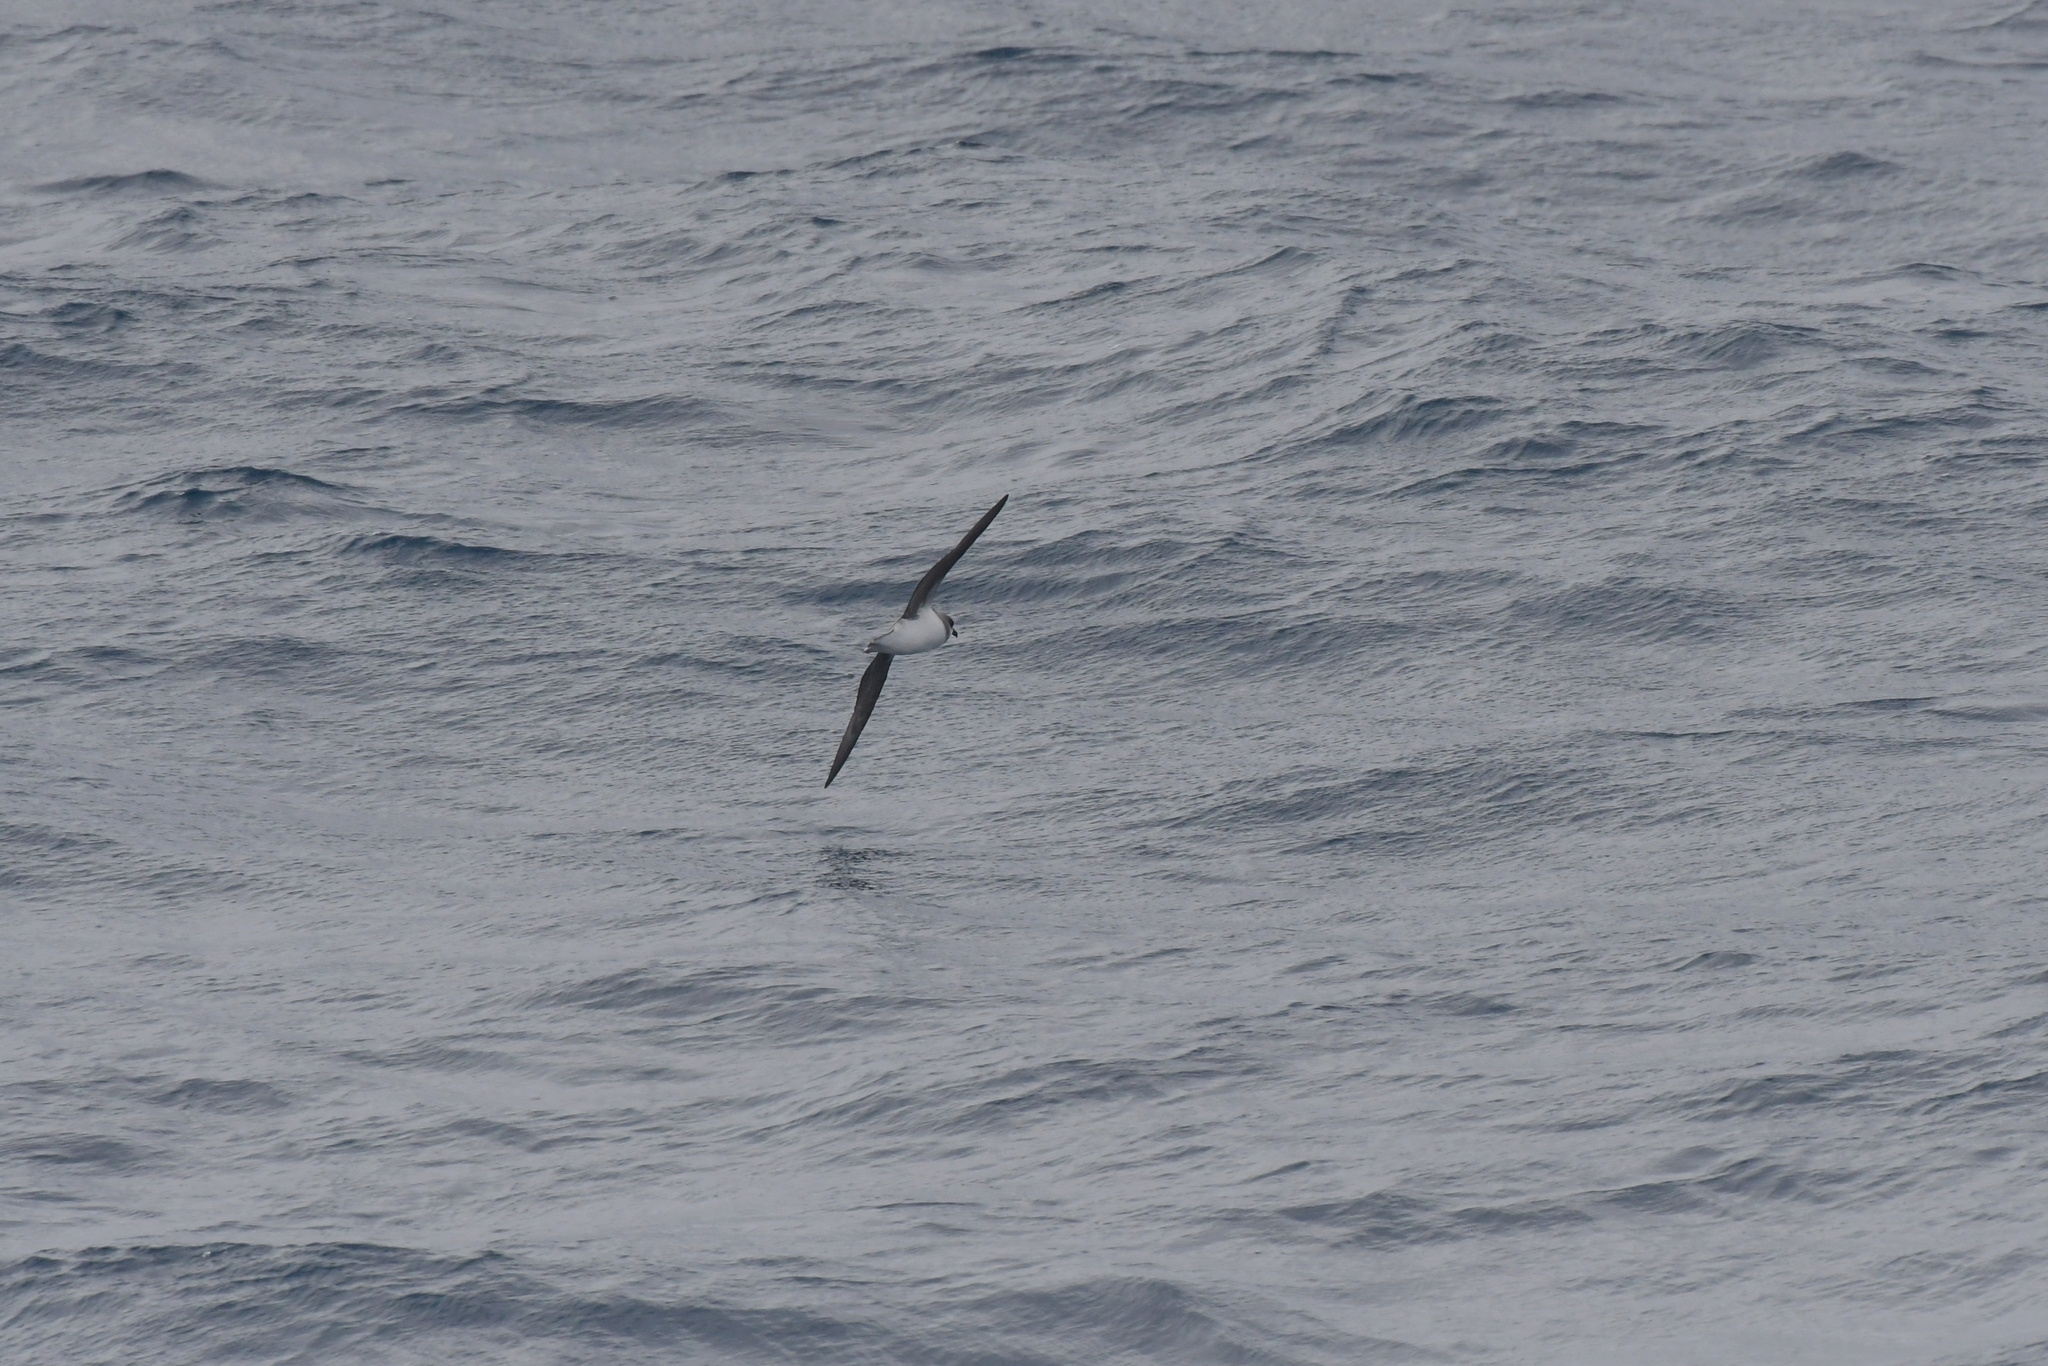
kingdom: Animalia
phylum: Chordata
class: Aves
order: Procellariiformes
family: Procellariidae
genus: Pterodroma
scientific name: Pterodroma mollis
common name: Soft-plumaged petrel
